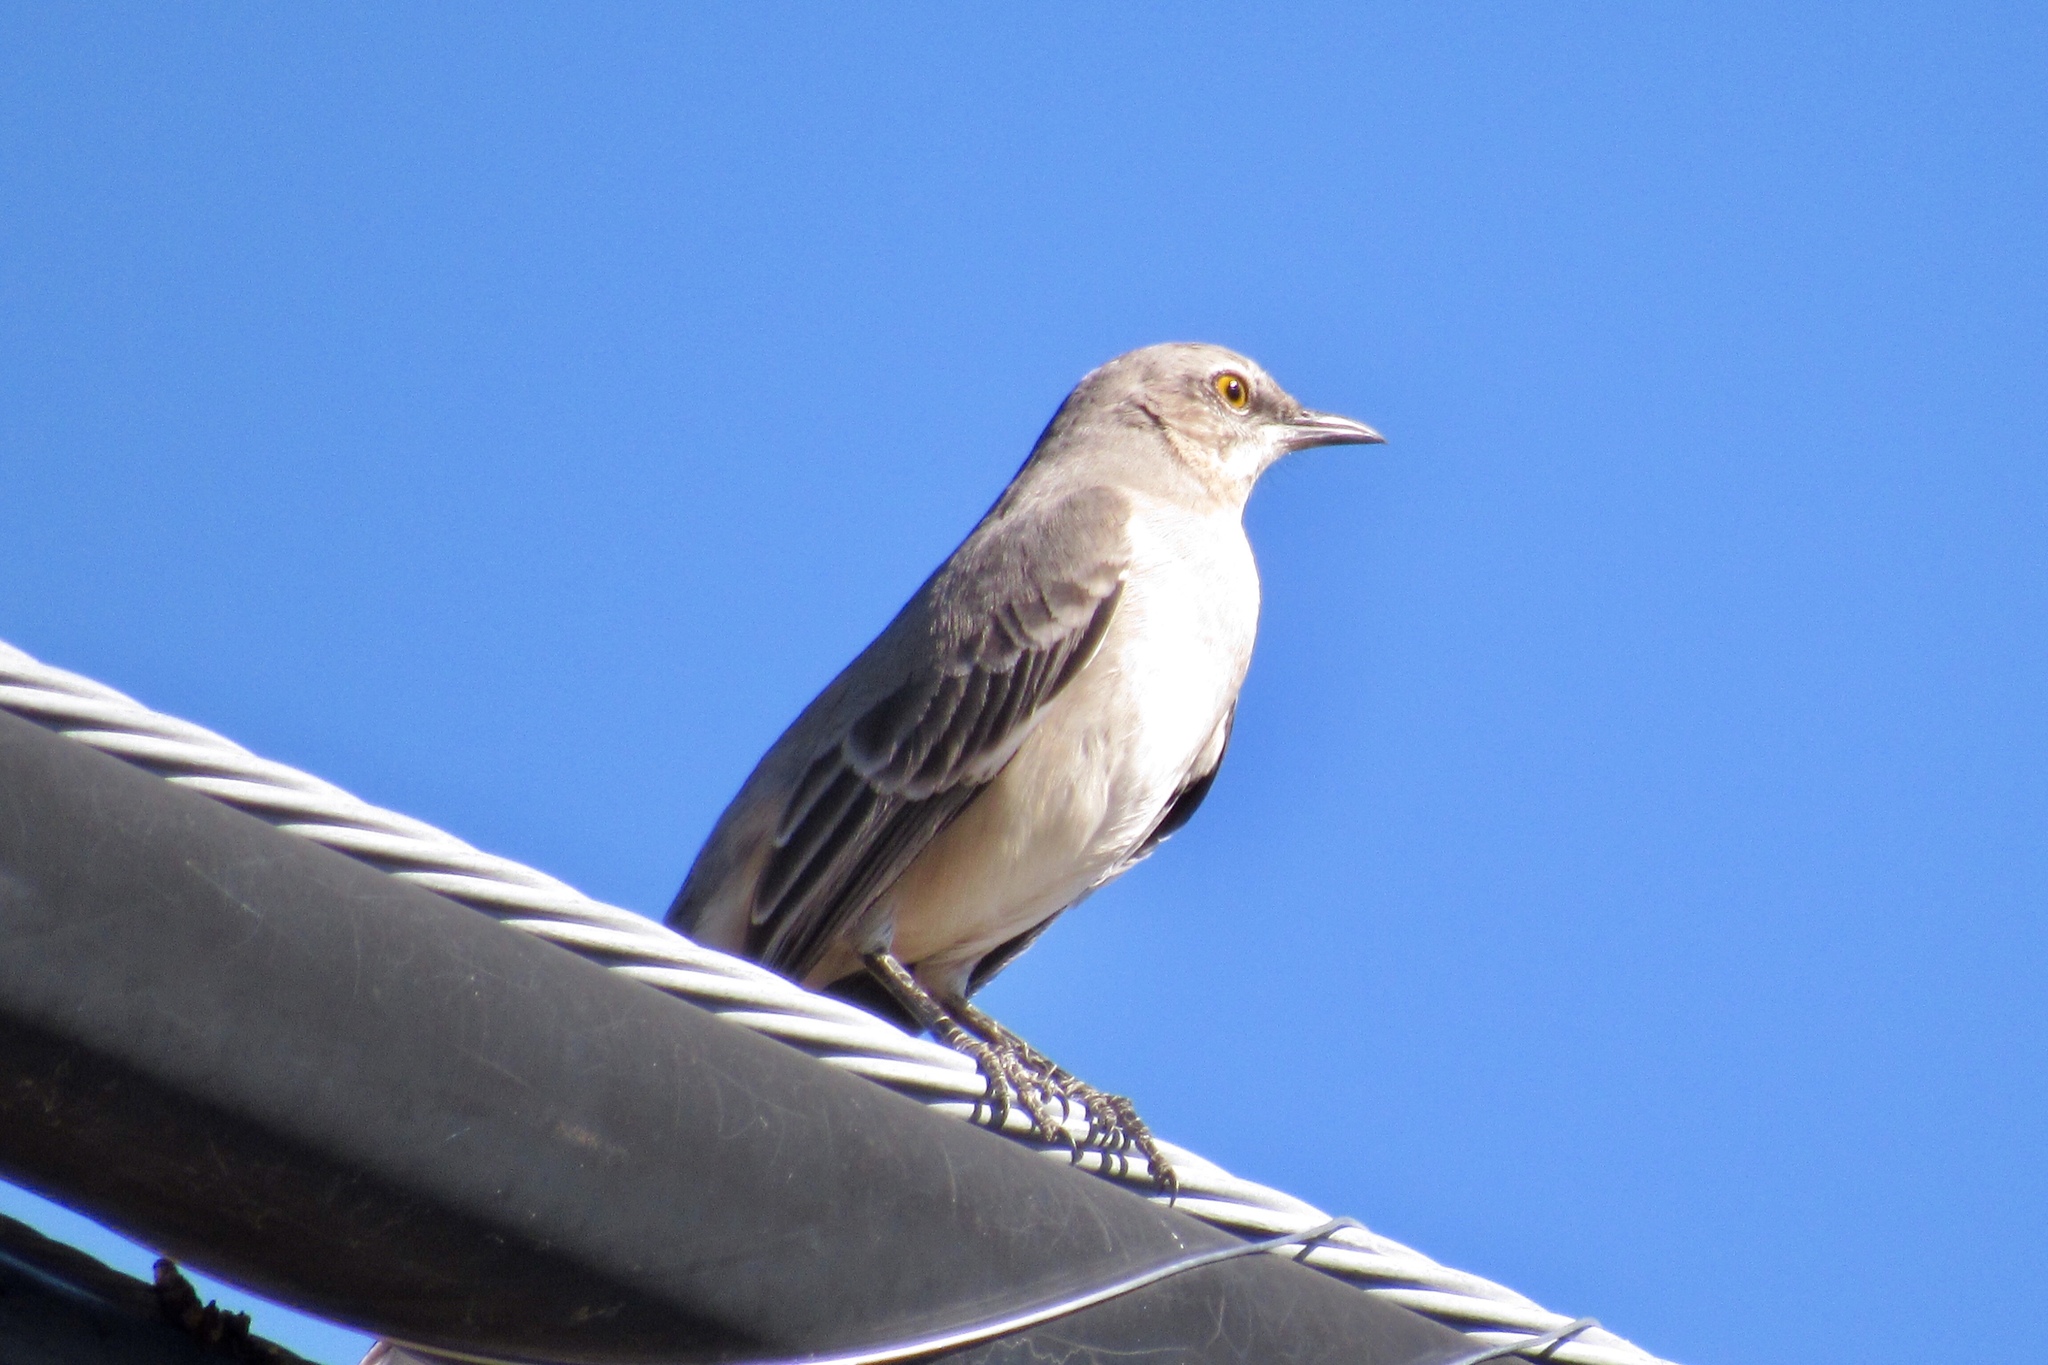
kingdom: Animalia
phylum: Chordata
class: Aves
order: Passeriformes
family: Mimidae
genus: Mimus
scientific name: Mimus polyglottos
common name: Northern mockingbird
